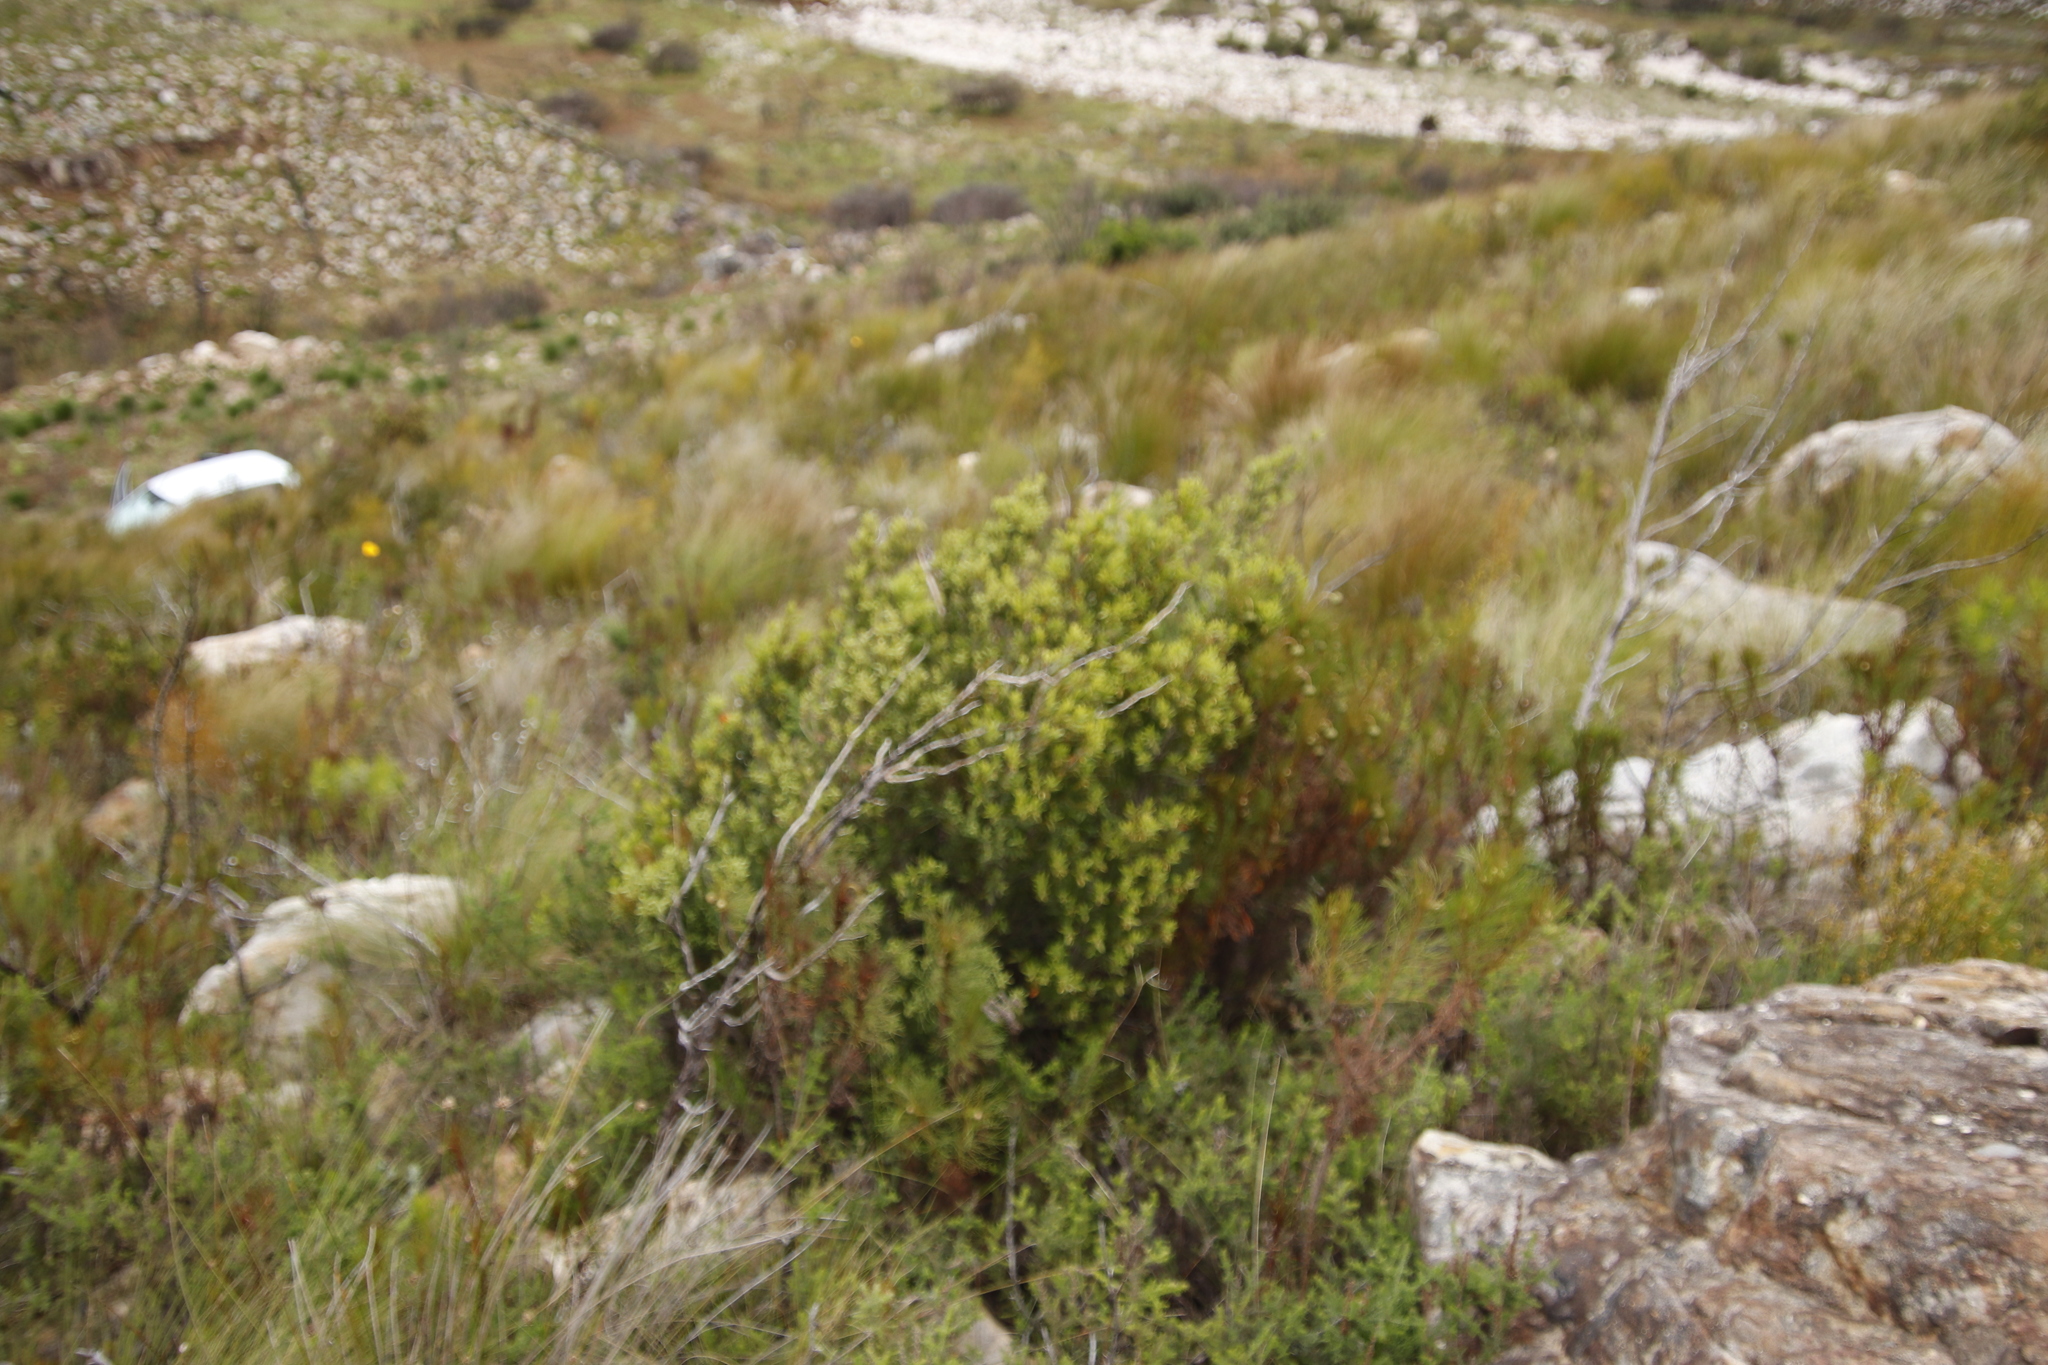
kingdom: Plantae
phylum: Tracheophyta
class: Magnoliopsida
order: Ericales
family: Ebenaceae
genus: Diospyros
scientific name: Diospyros glabra
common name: Fynbos star apple
